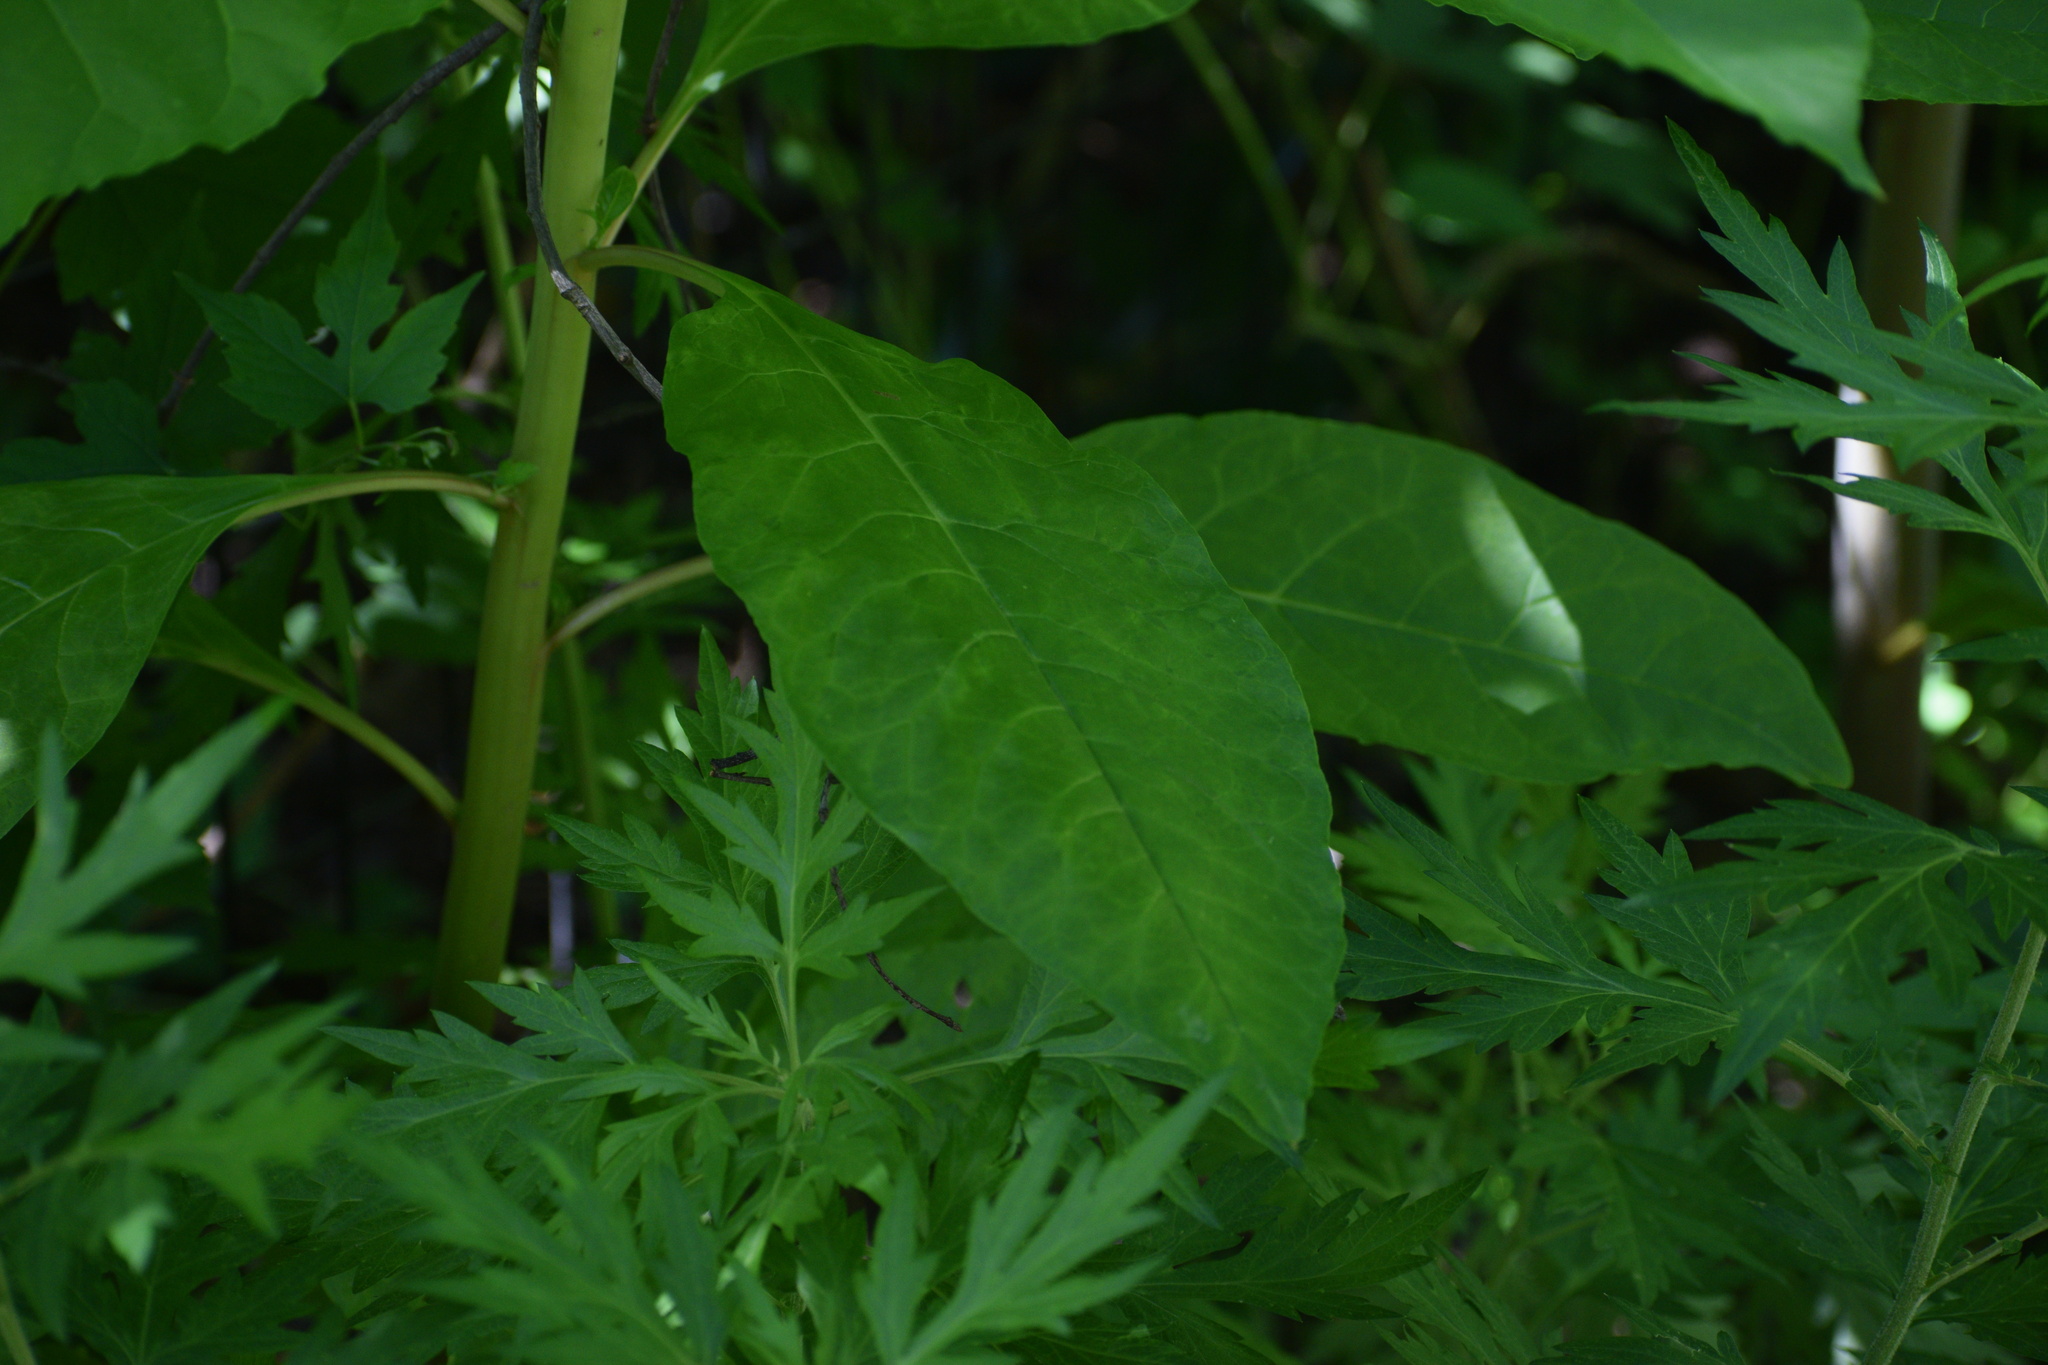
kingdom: Plantae
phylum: Tracheophyta
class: Magnoliopsida
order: Caryophyllales
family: Phytolaccaceae
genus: Phytolacca
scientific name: Phytolacca americana
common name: American pokeweed
